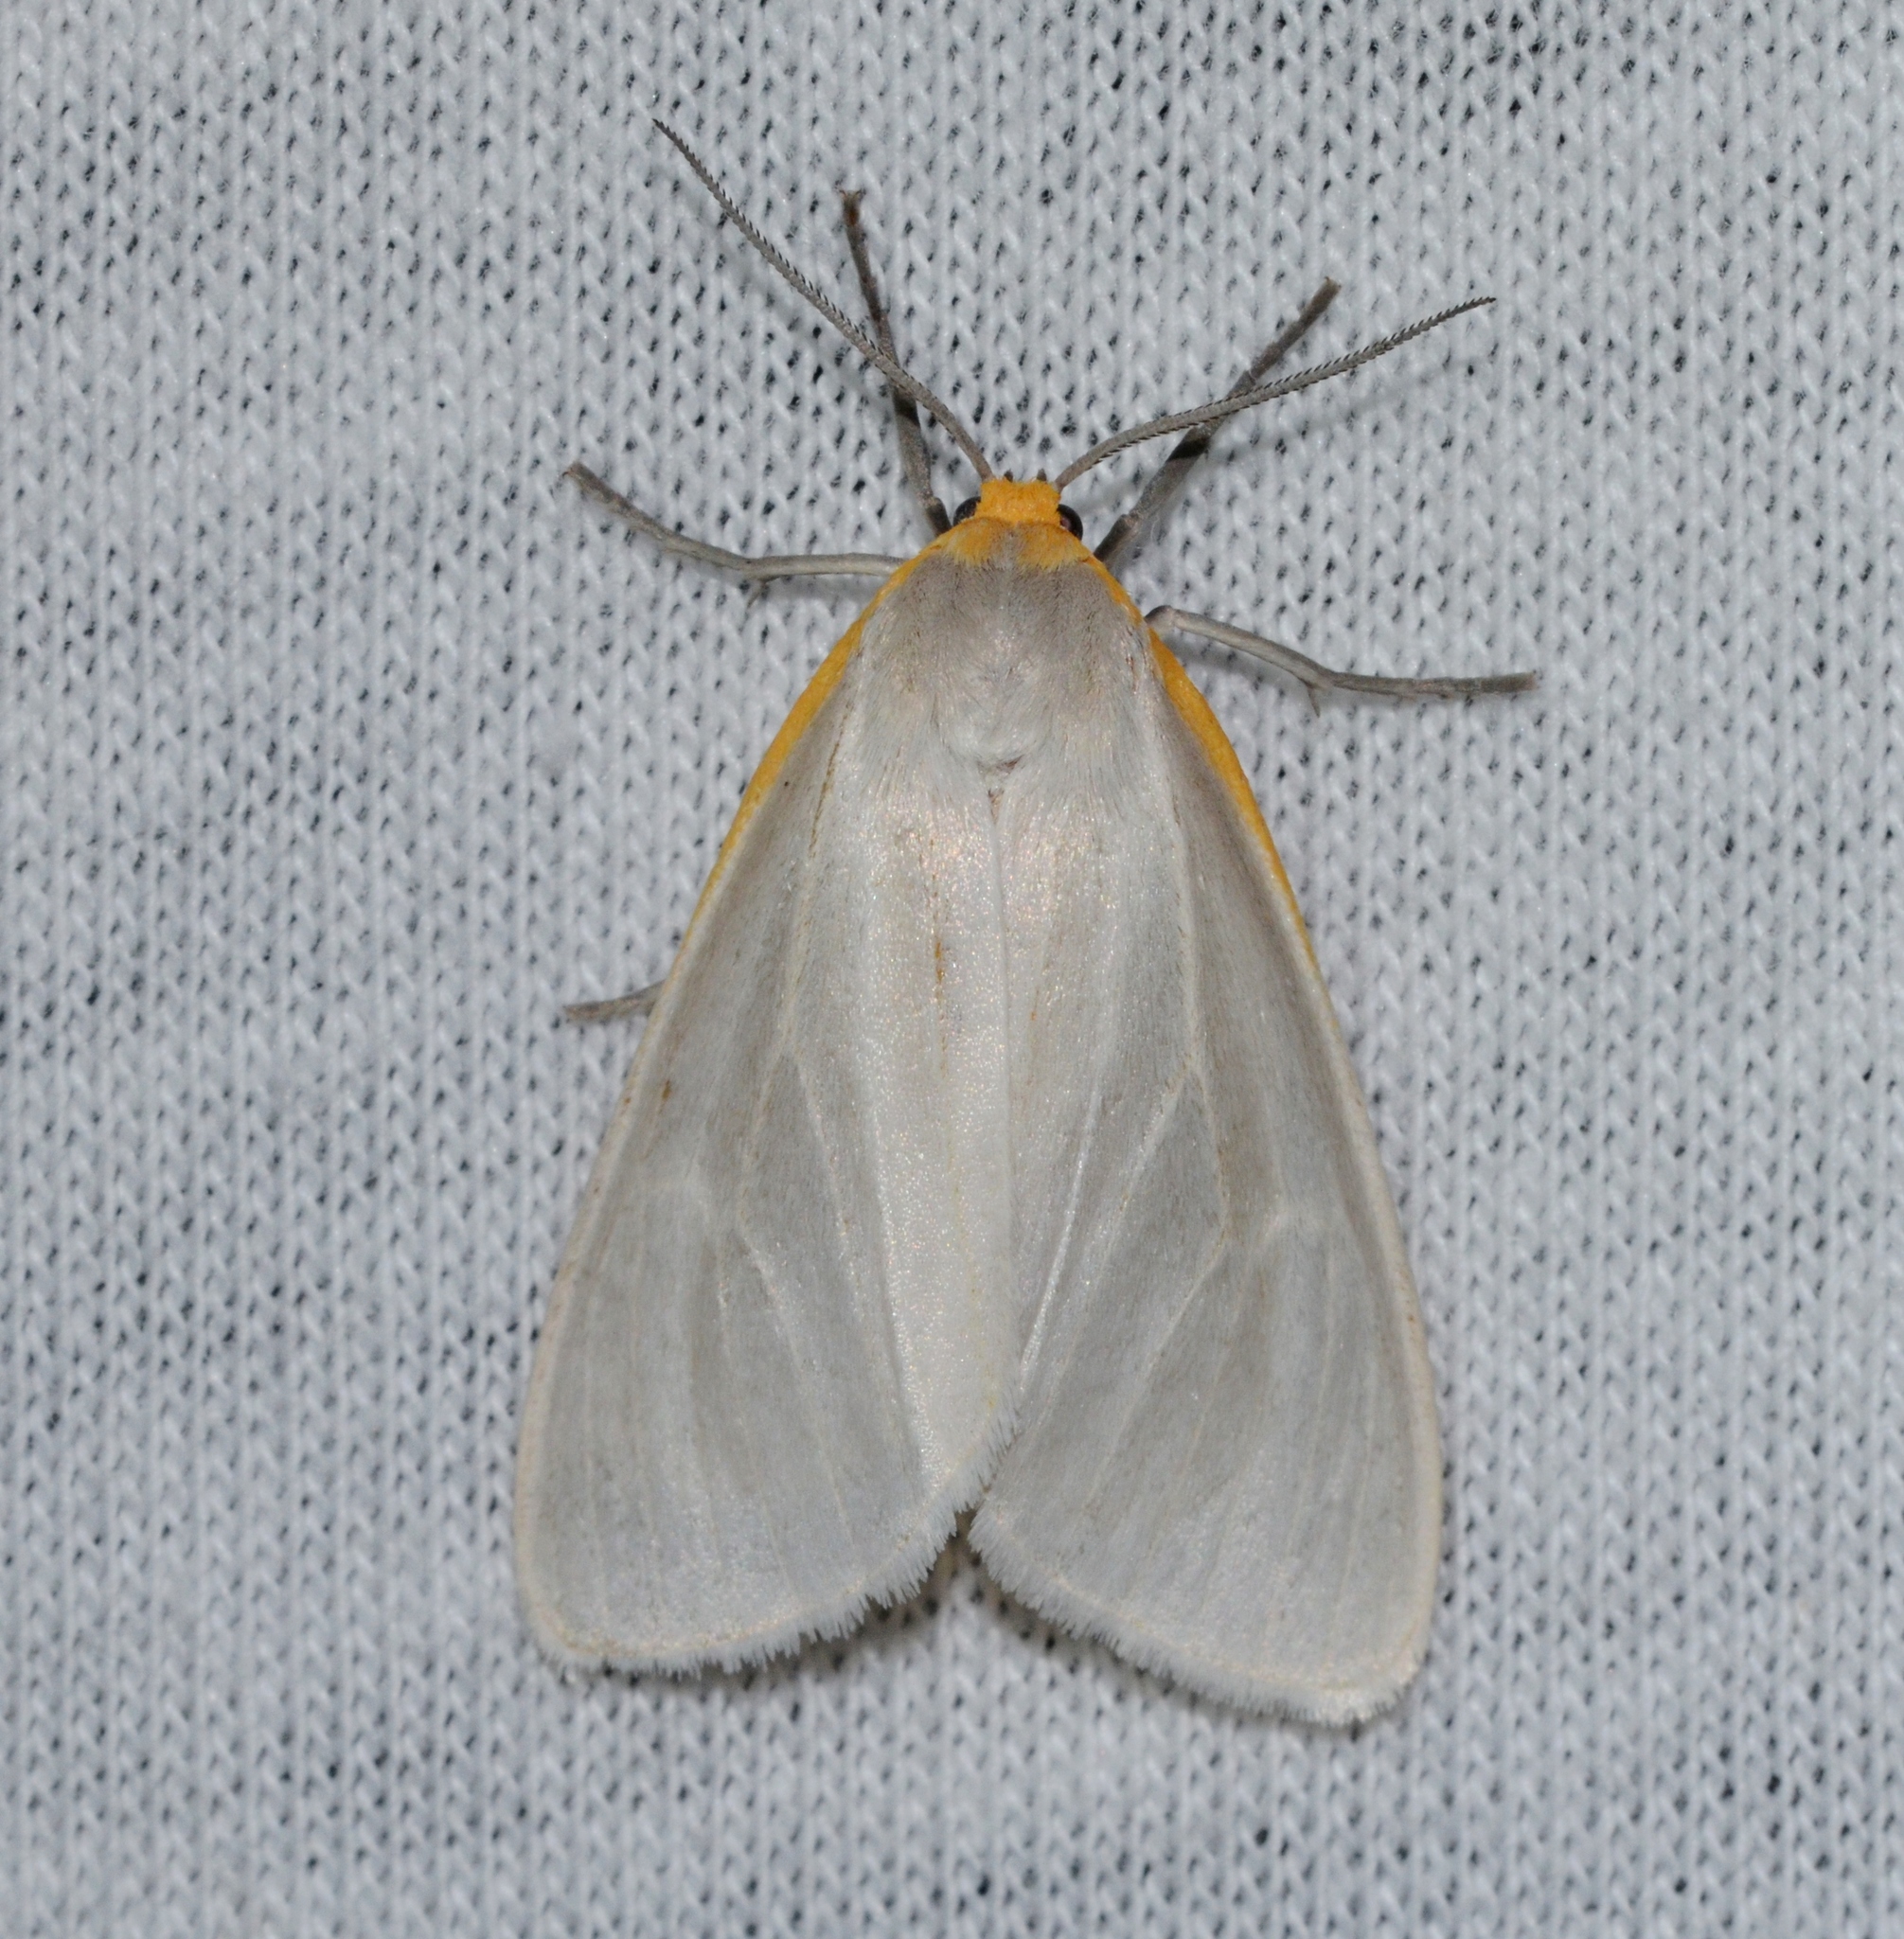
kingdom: Animalia
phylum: Arthropoda
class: Insecta
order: Lepidoptera
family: Erebidae
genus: Cycnia
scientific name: Cycnia collaris
